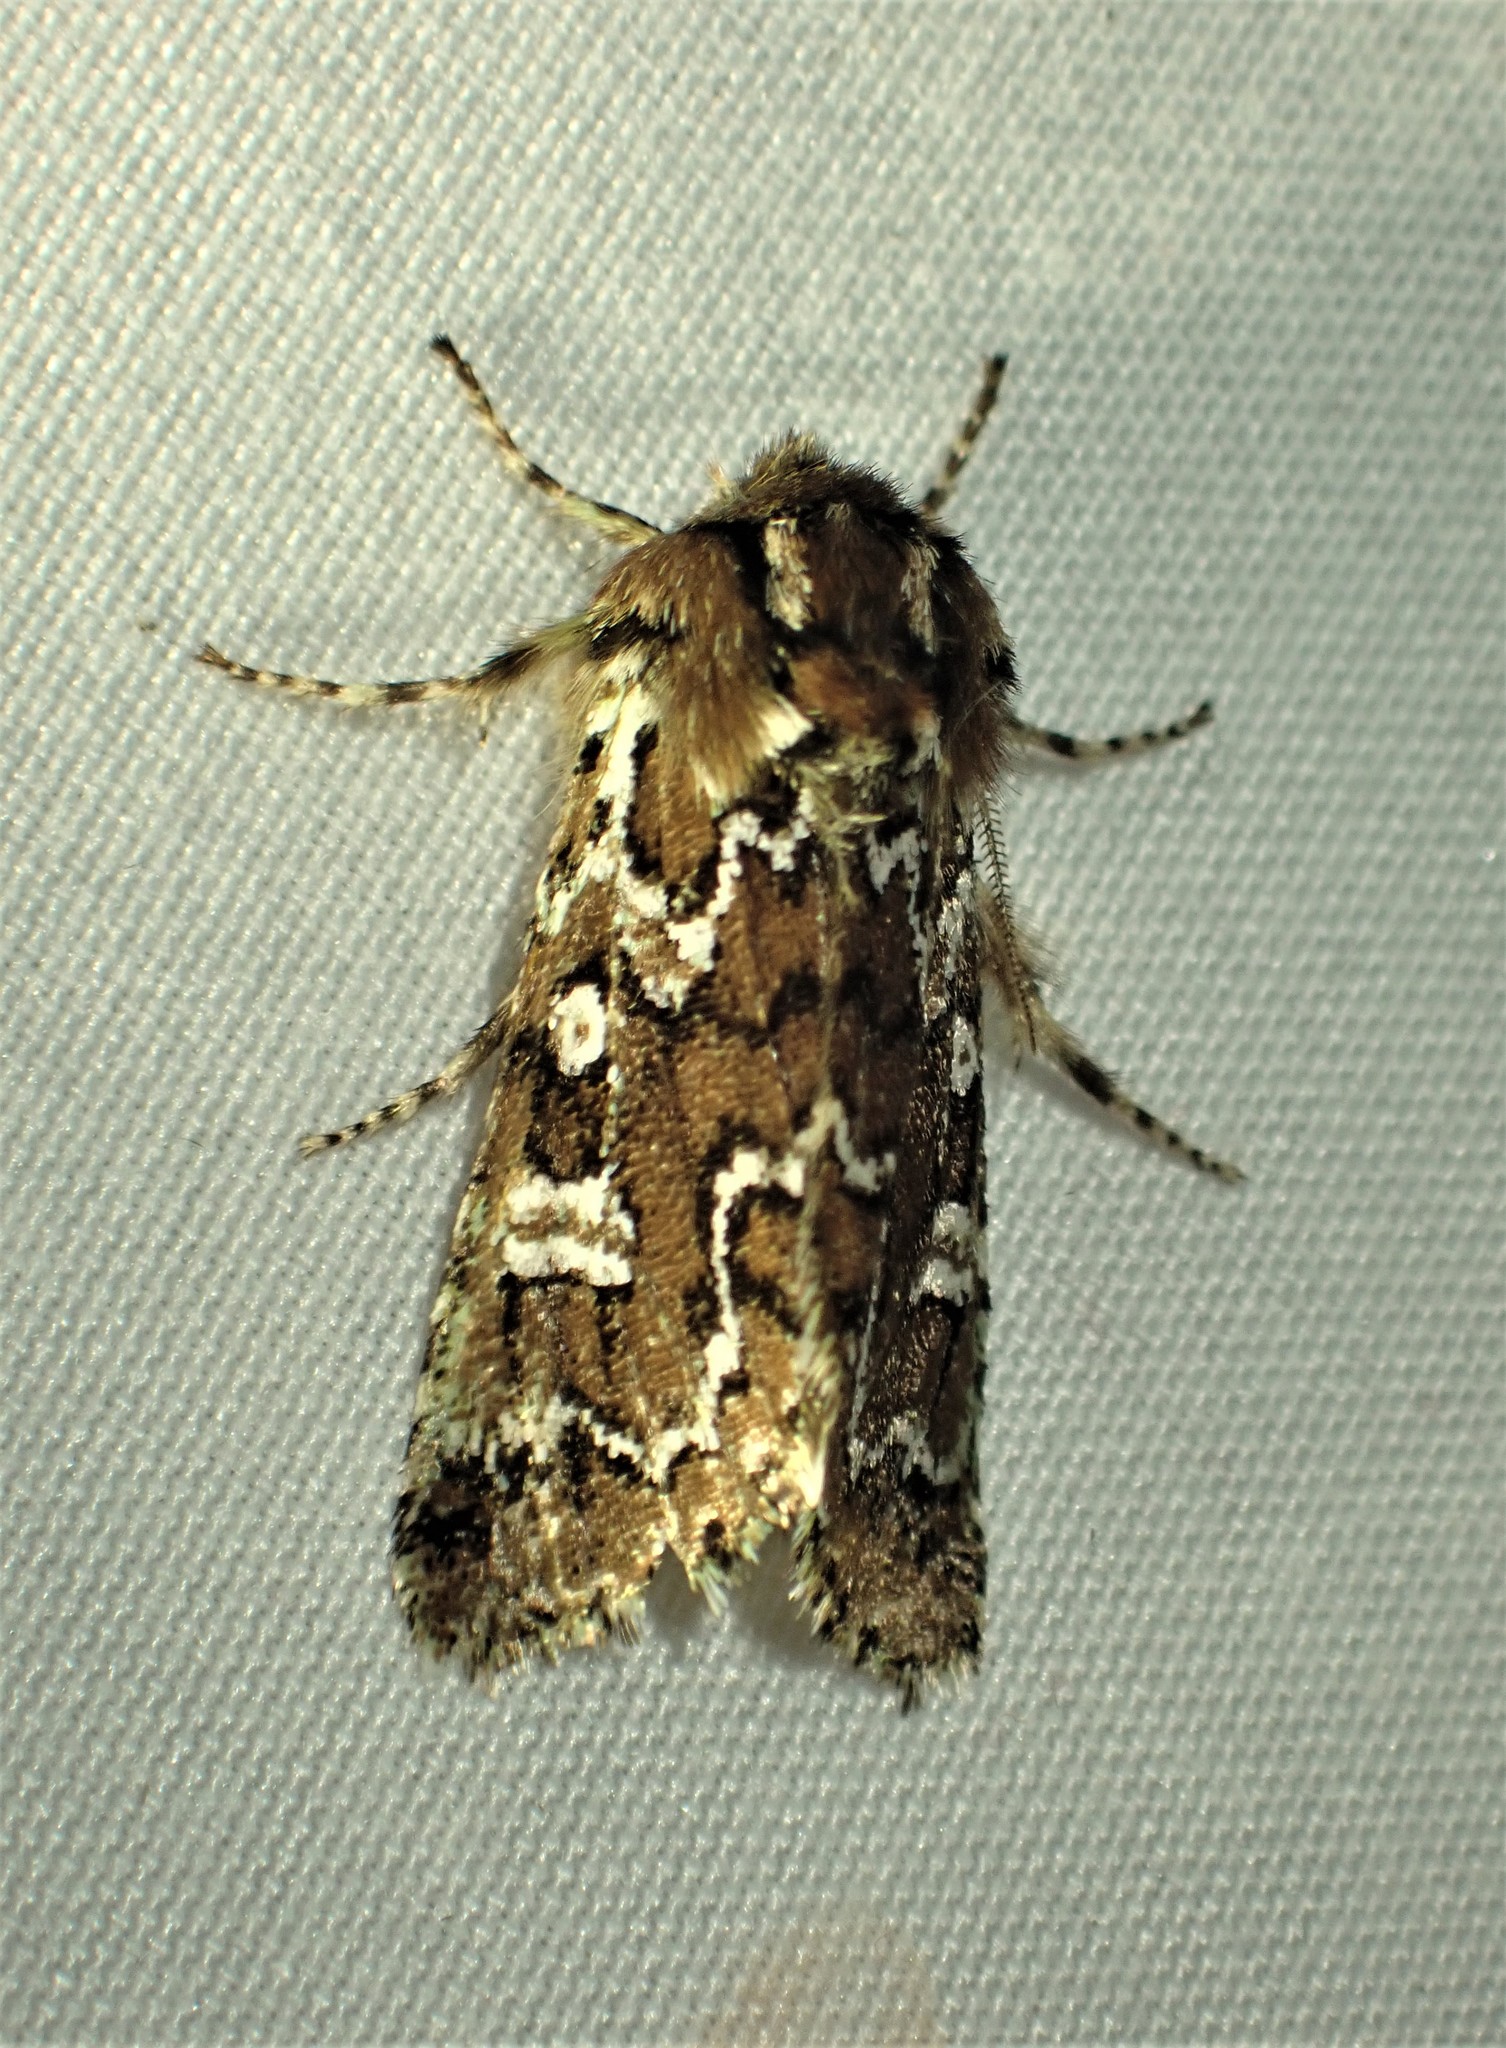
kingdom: Animalia
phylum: Arthropoda
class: Insecta
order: Lepidoptera
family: Noctuidae
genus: Feralia
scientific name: Feralia jocosa
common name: Joker
